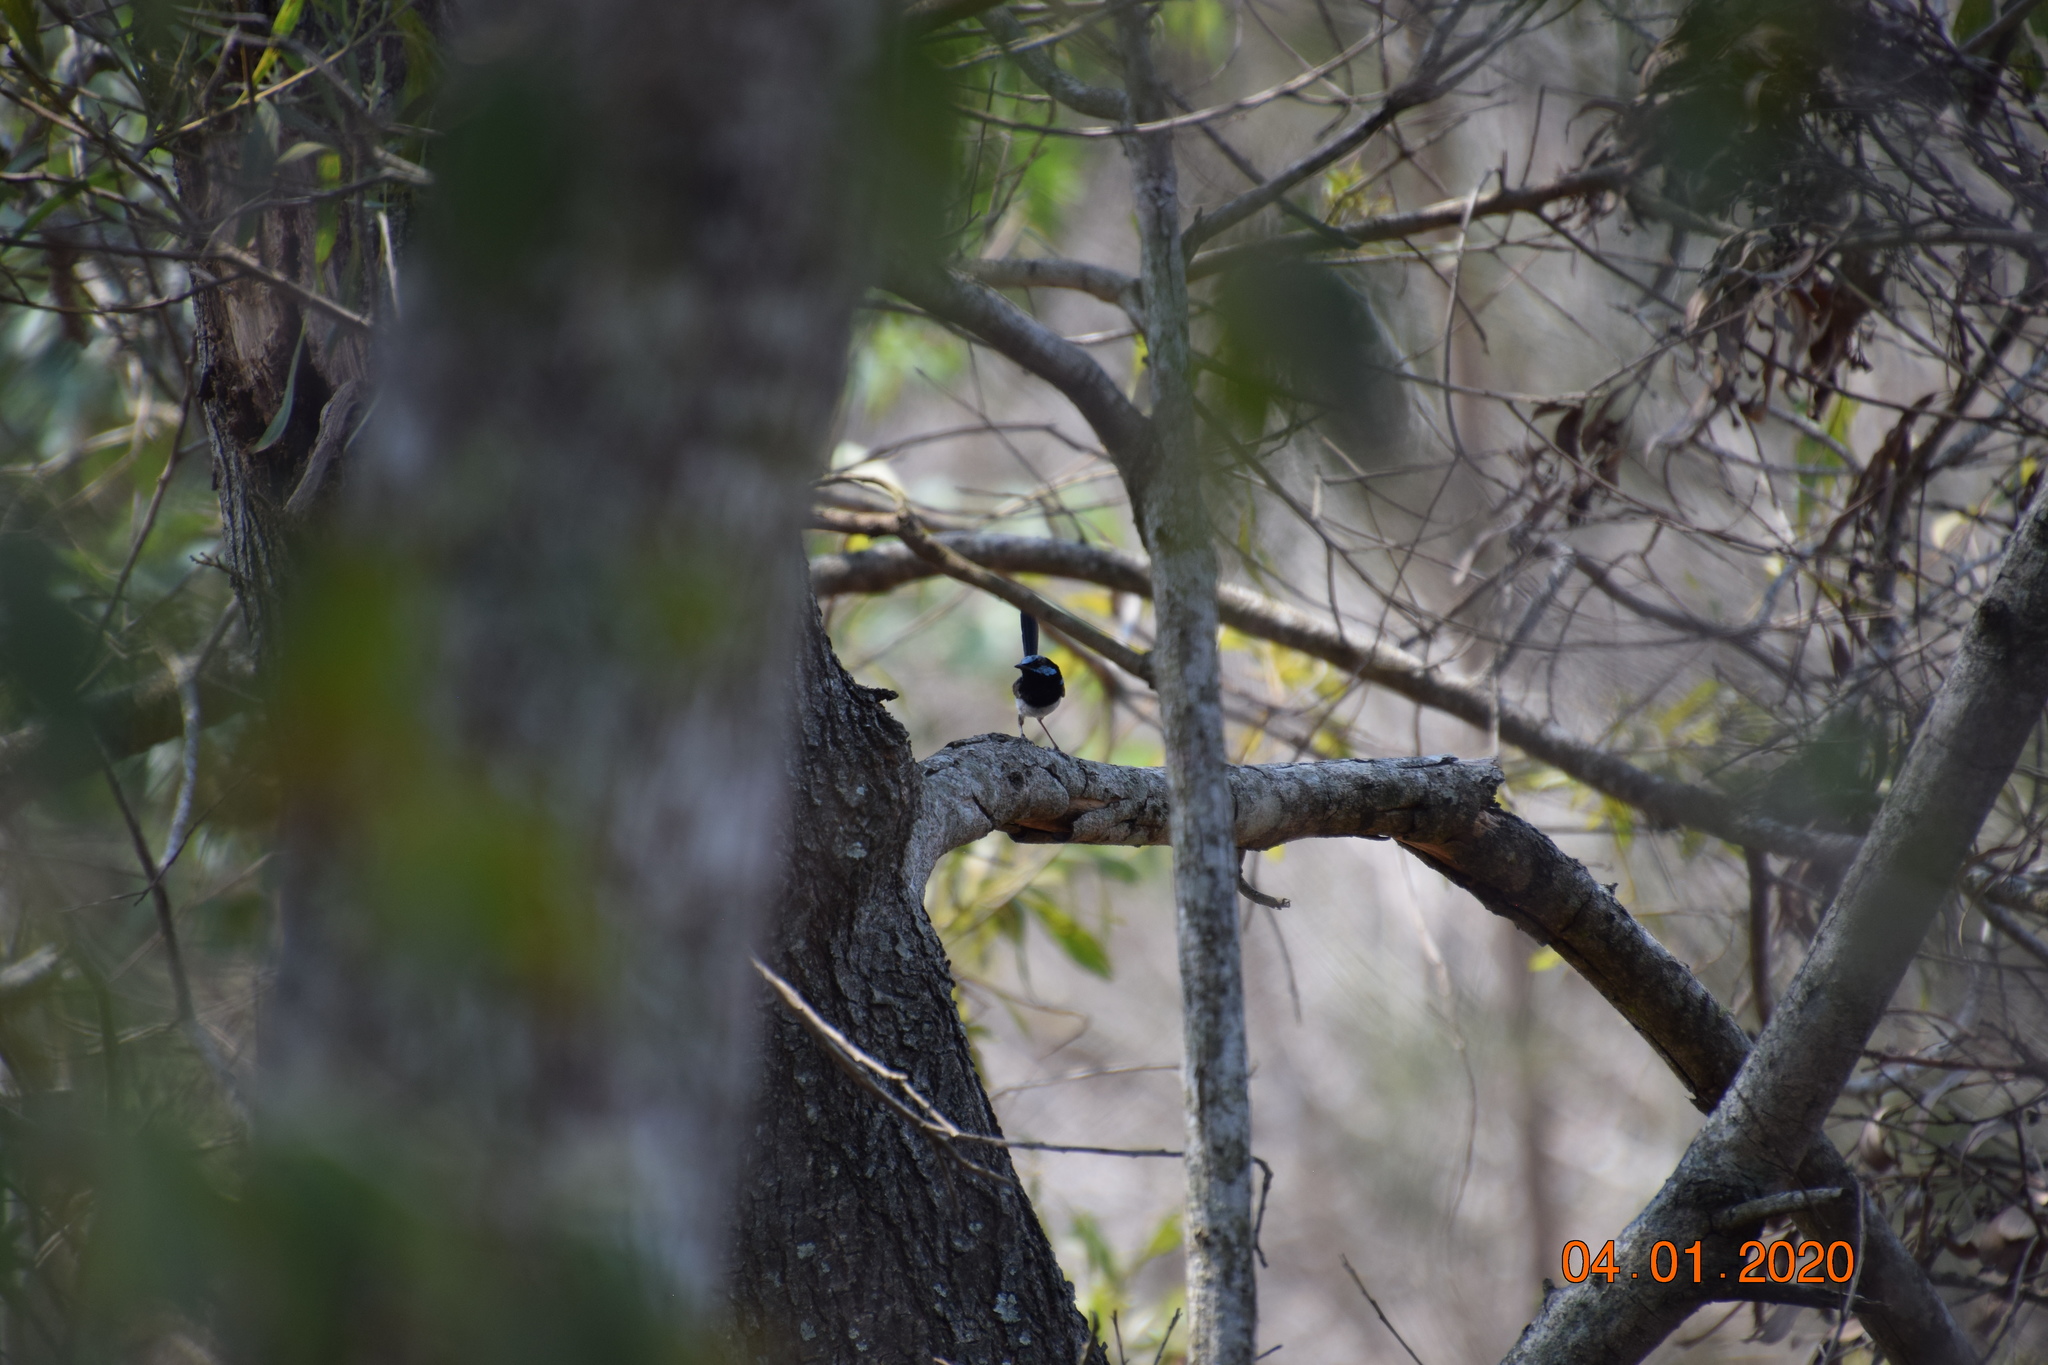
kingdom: Animalia
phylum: Chordata
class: Aves
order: Passeriformes
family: Maluridae
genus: Malurus
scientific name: Malurus cyaneus
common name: Superb fairywren
